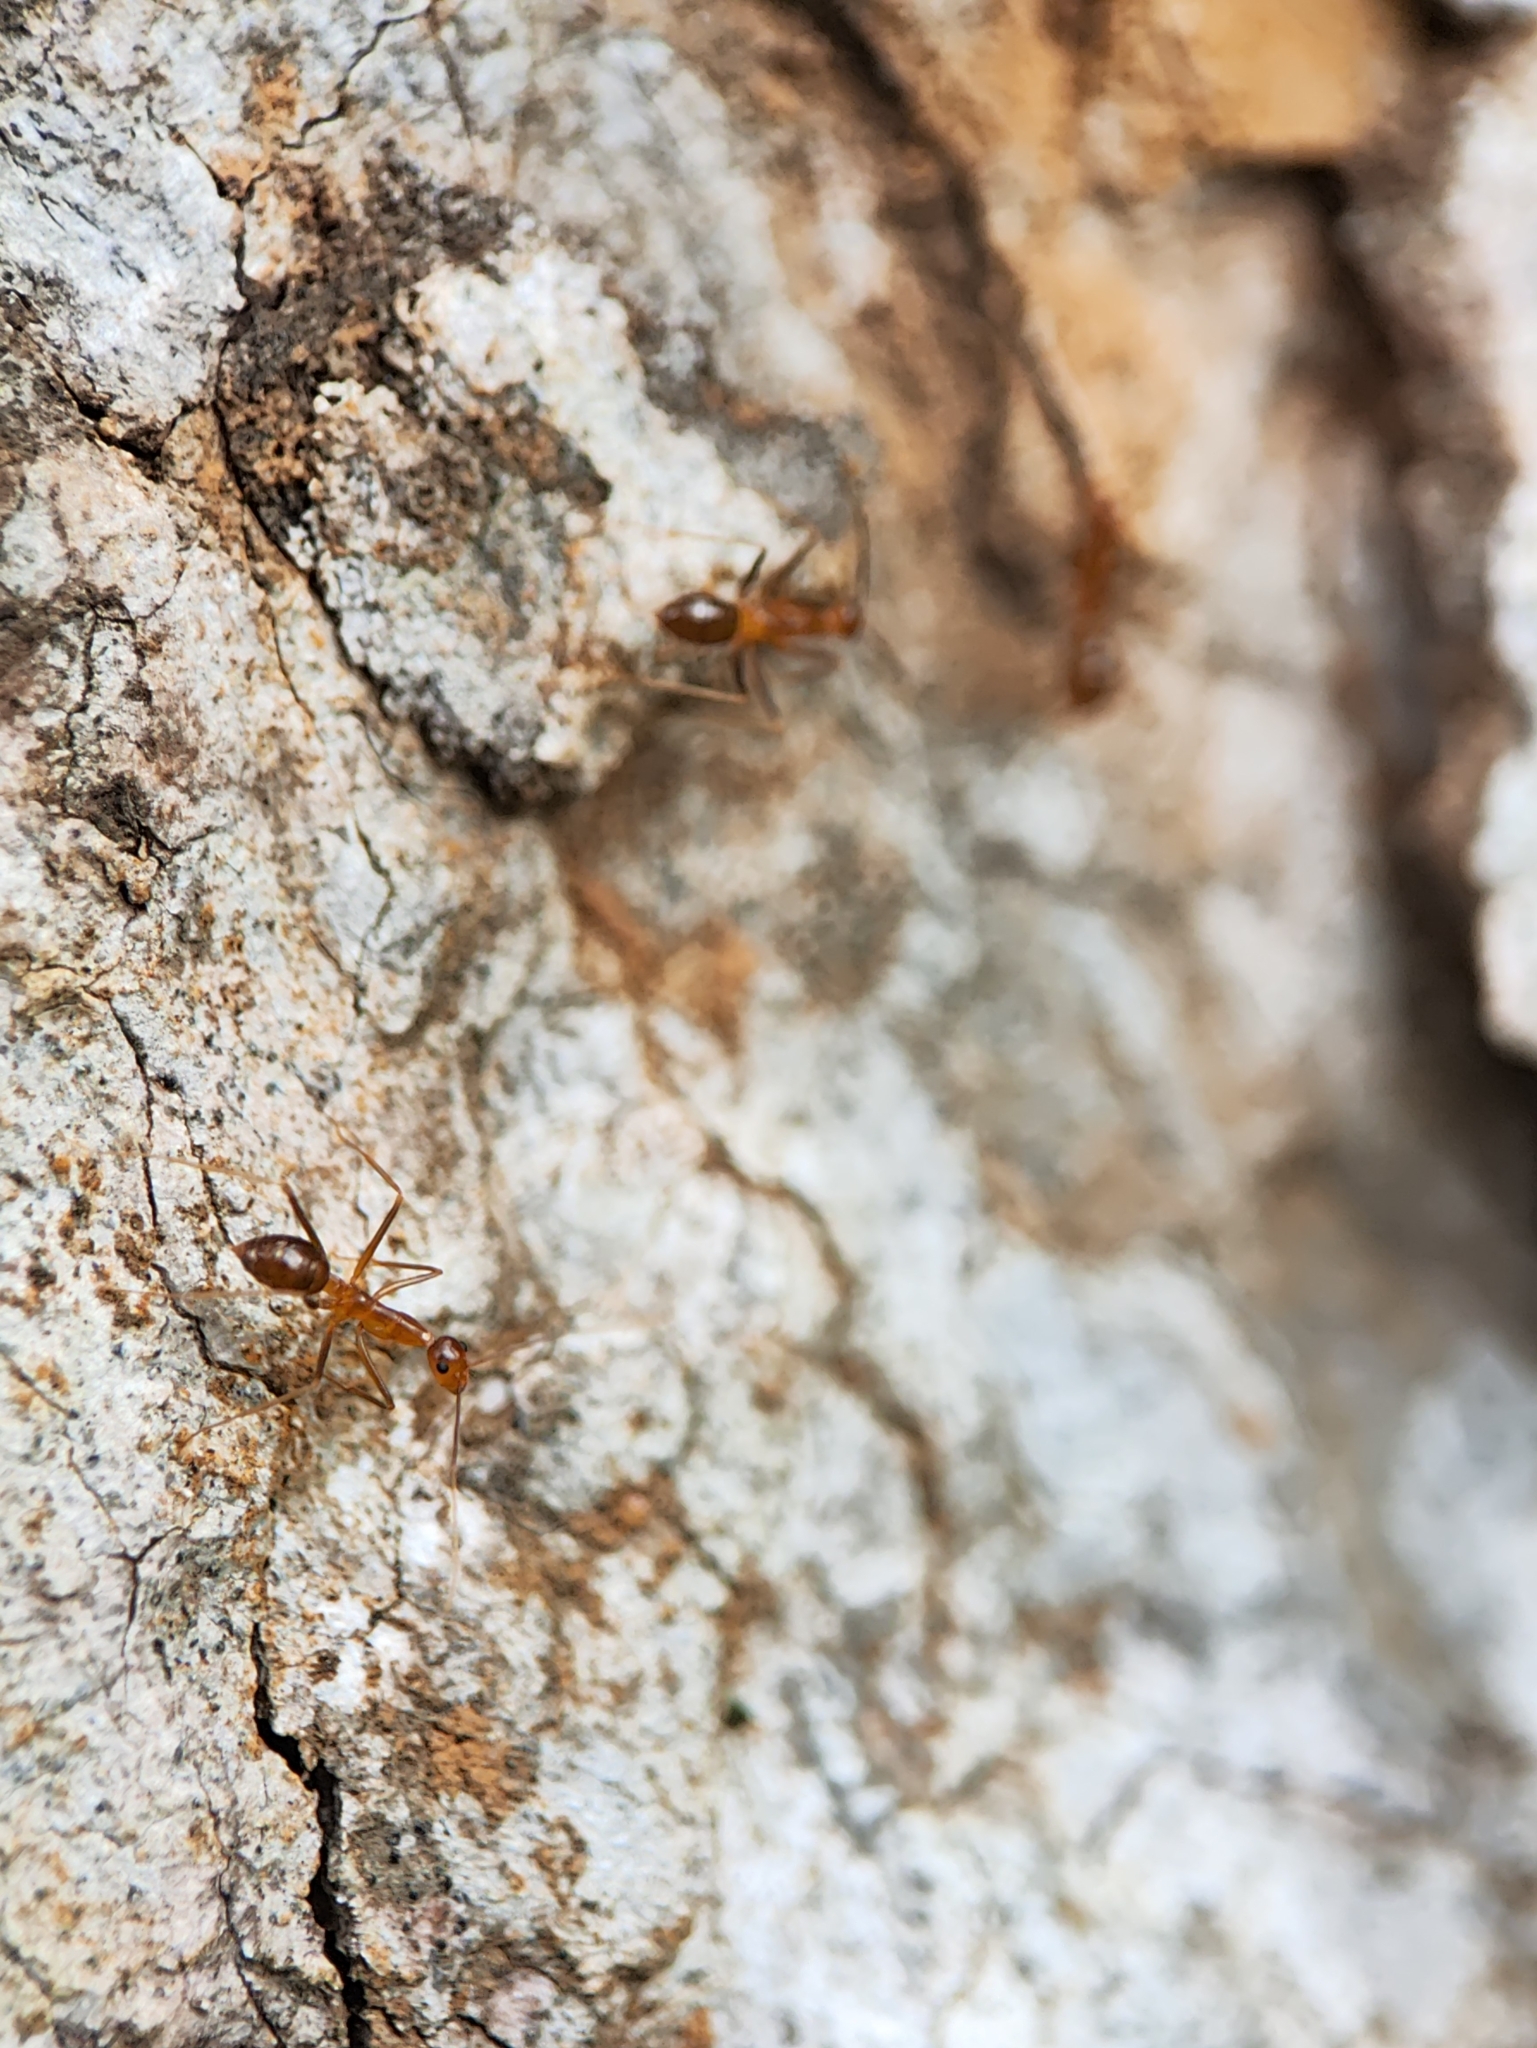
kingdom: Animalia
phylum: Arthropoda
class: Insecta
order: Hymenoptera
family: Formicidae
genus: Anoplolepis
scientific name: Anoplolepis gracilipes
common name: Ant
